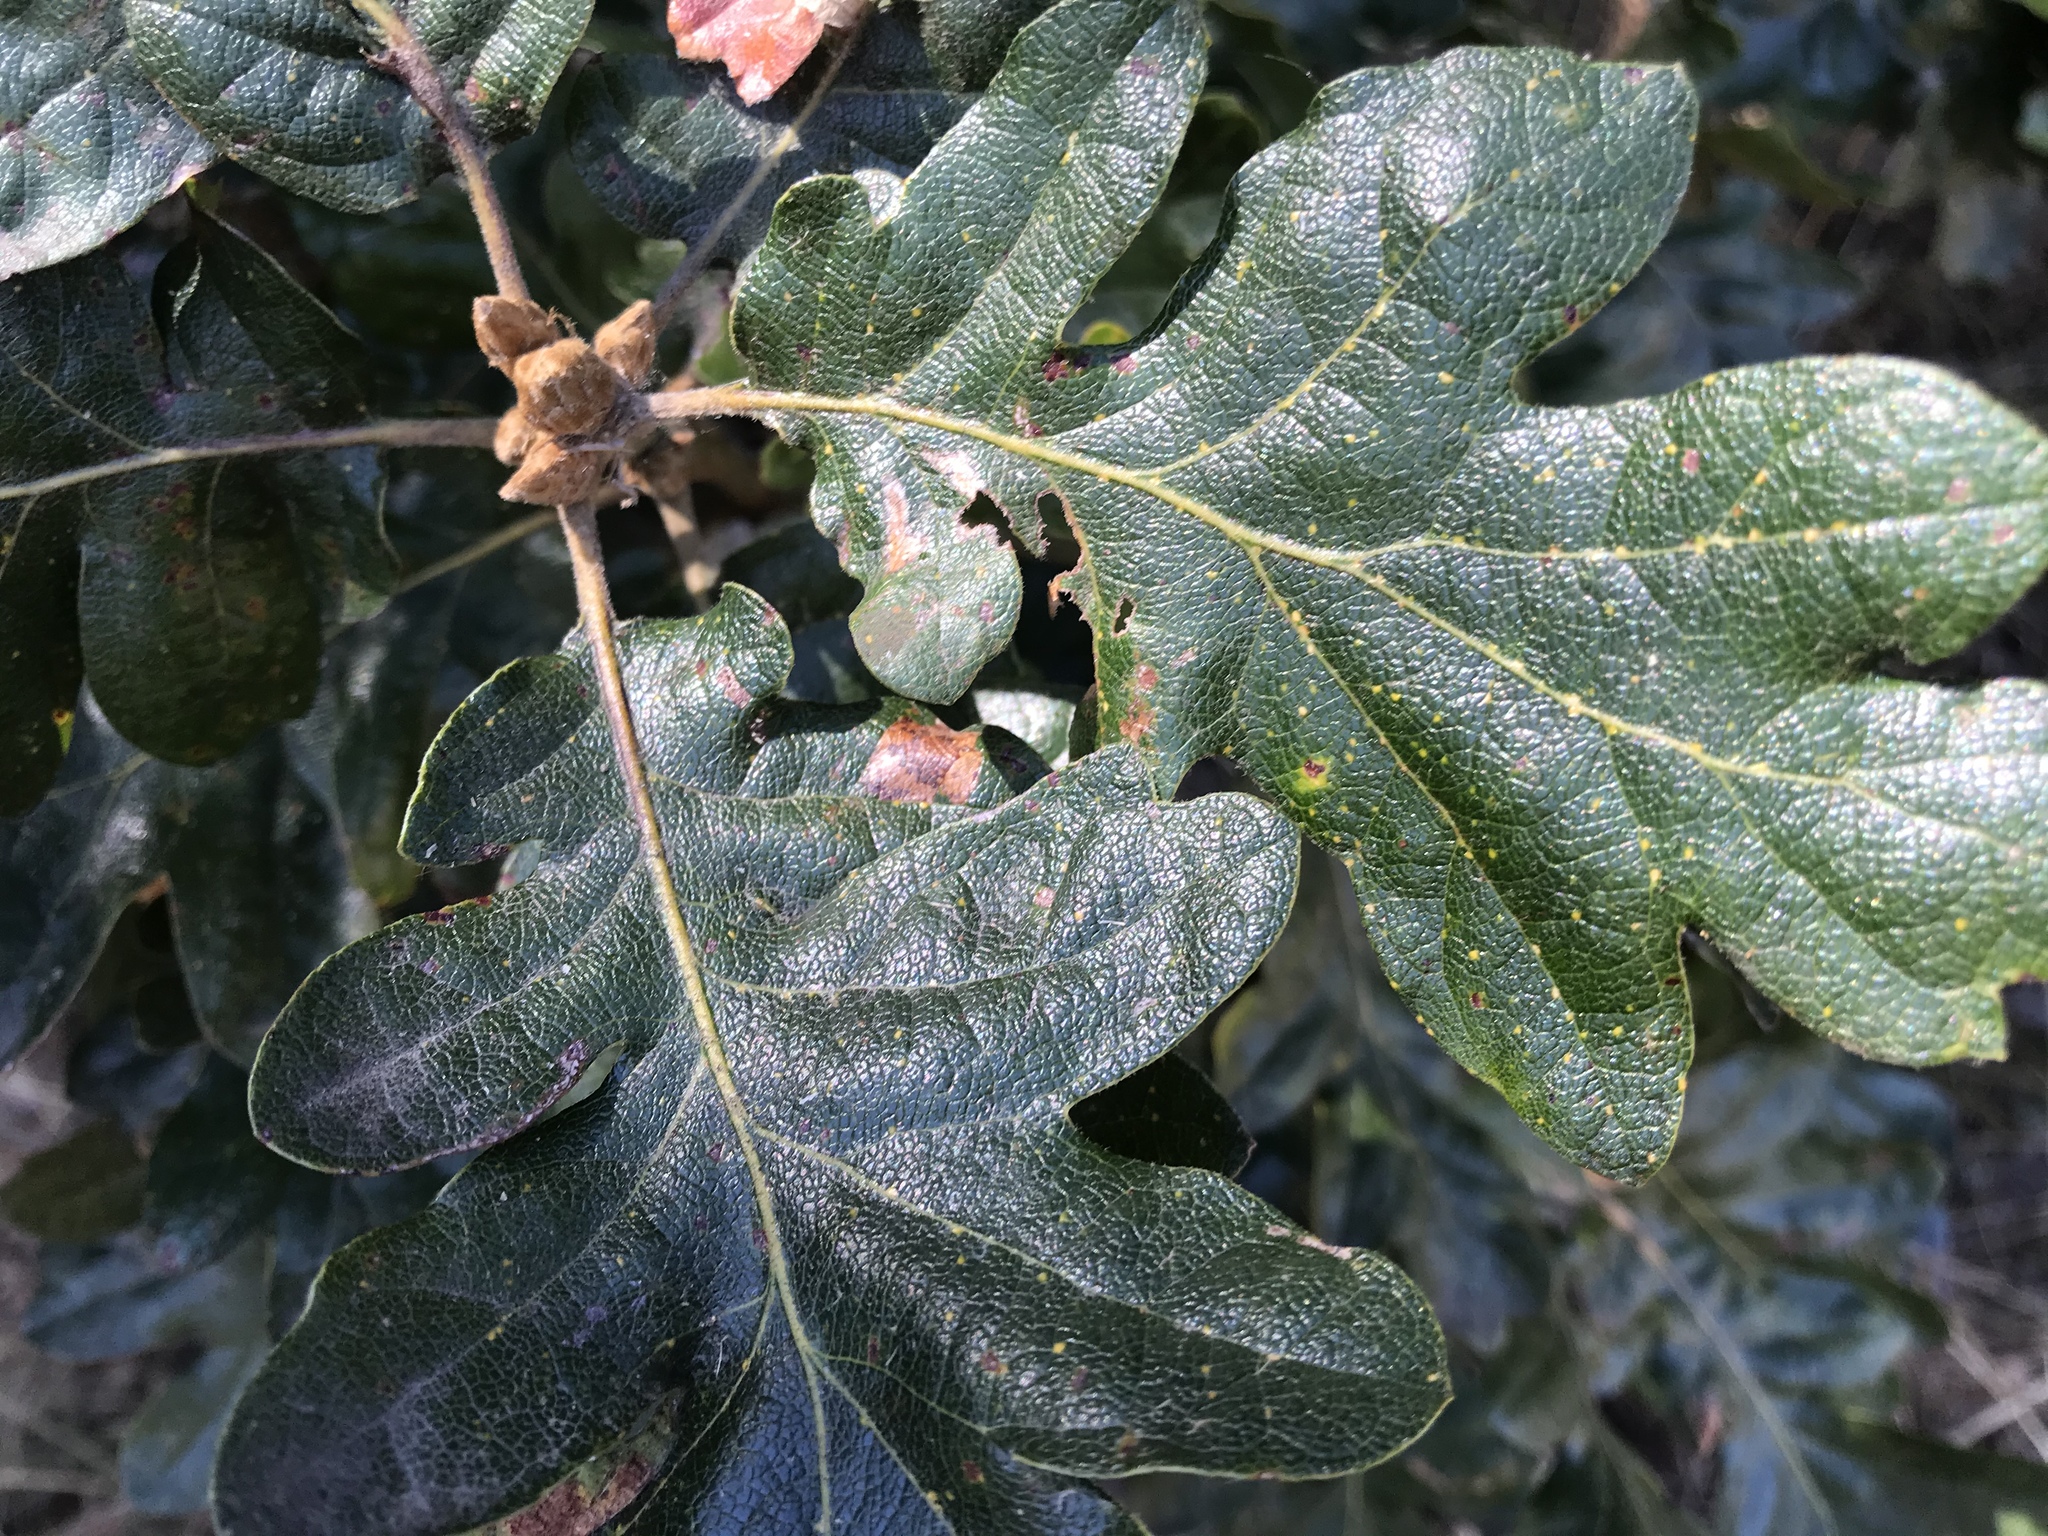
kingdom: Plantae
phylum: Tracheophyta
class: Magnoliopsida
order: Fagales
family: Fagaceae
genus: Quercus
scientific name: Quercus garryana
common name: Garry oak
